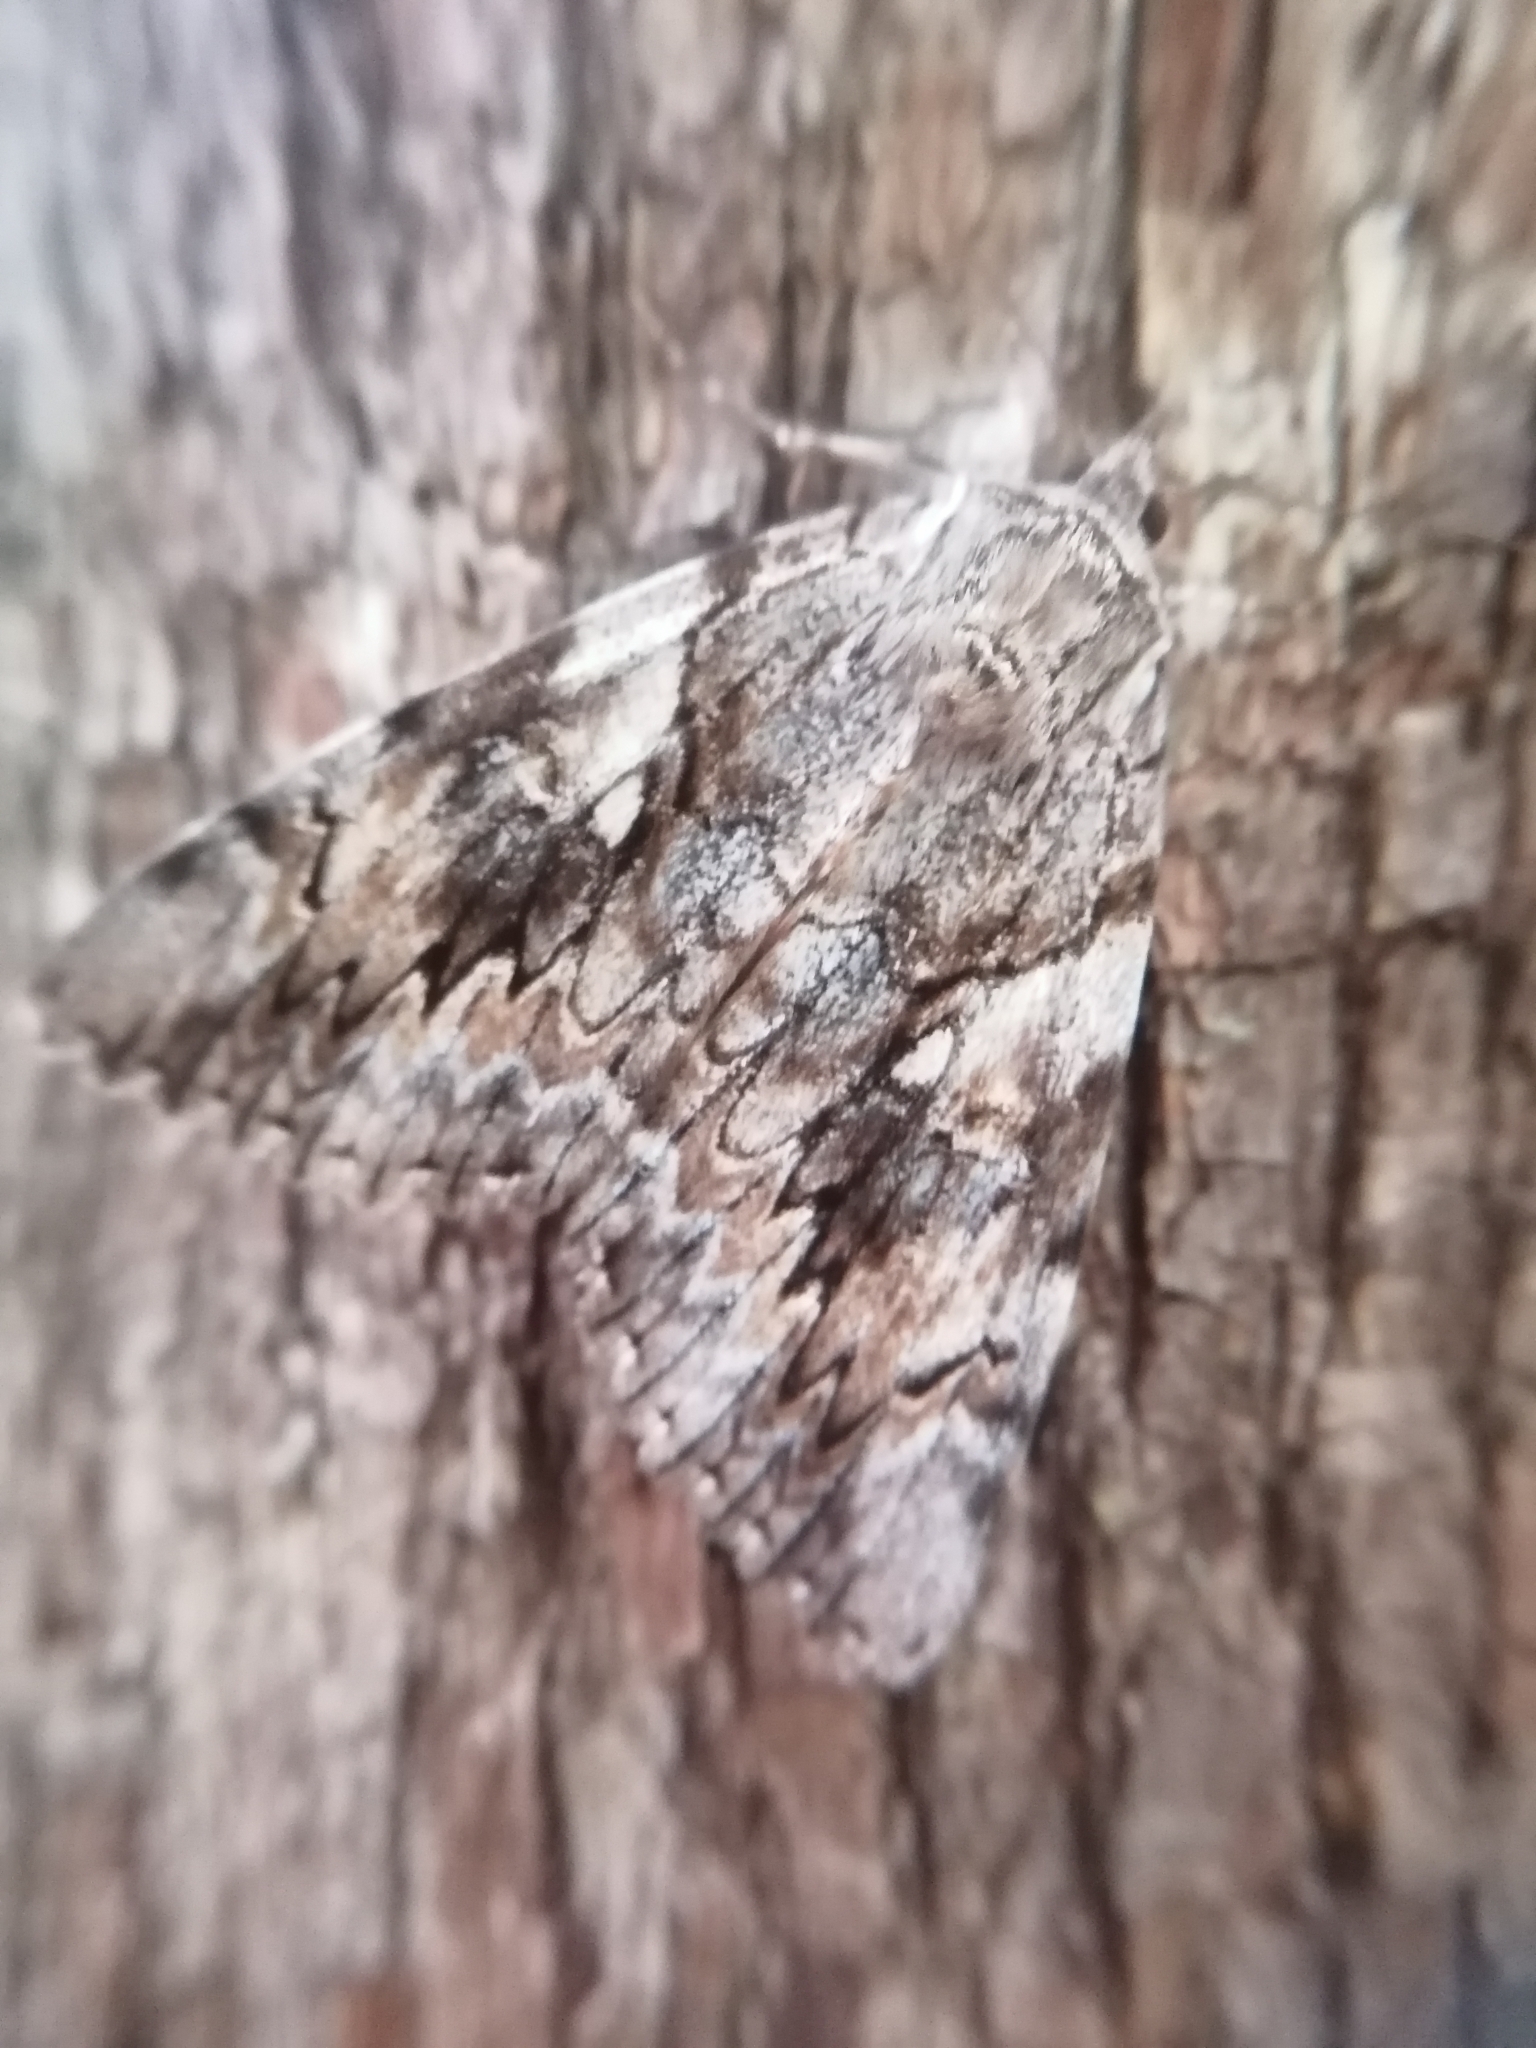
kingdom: Animalia
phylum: Arthropoda
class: Insecta
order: Lepidoptera
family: Erebidae
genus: Catocala
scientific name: Catocala cerogama
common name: Yellow banded underwing
